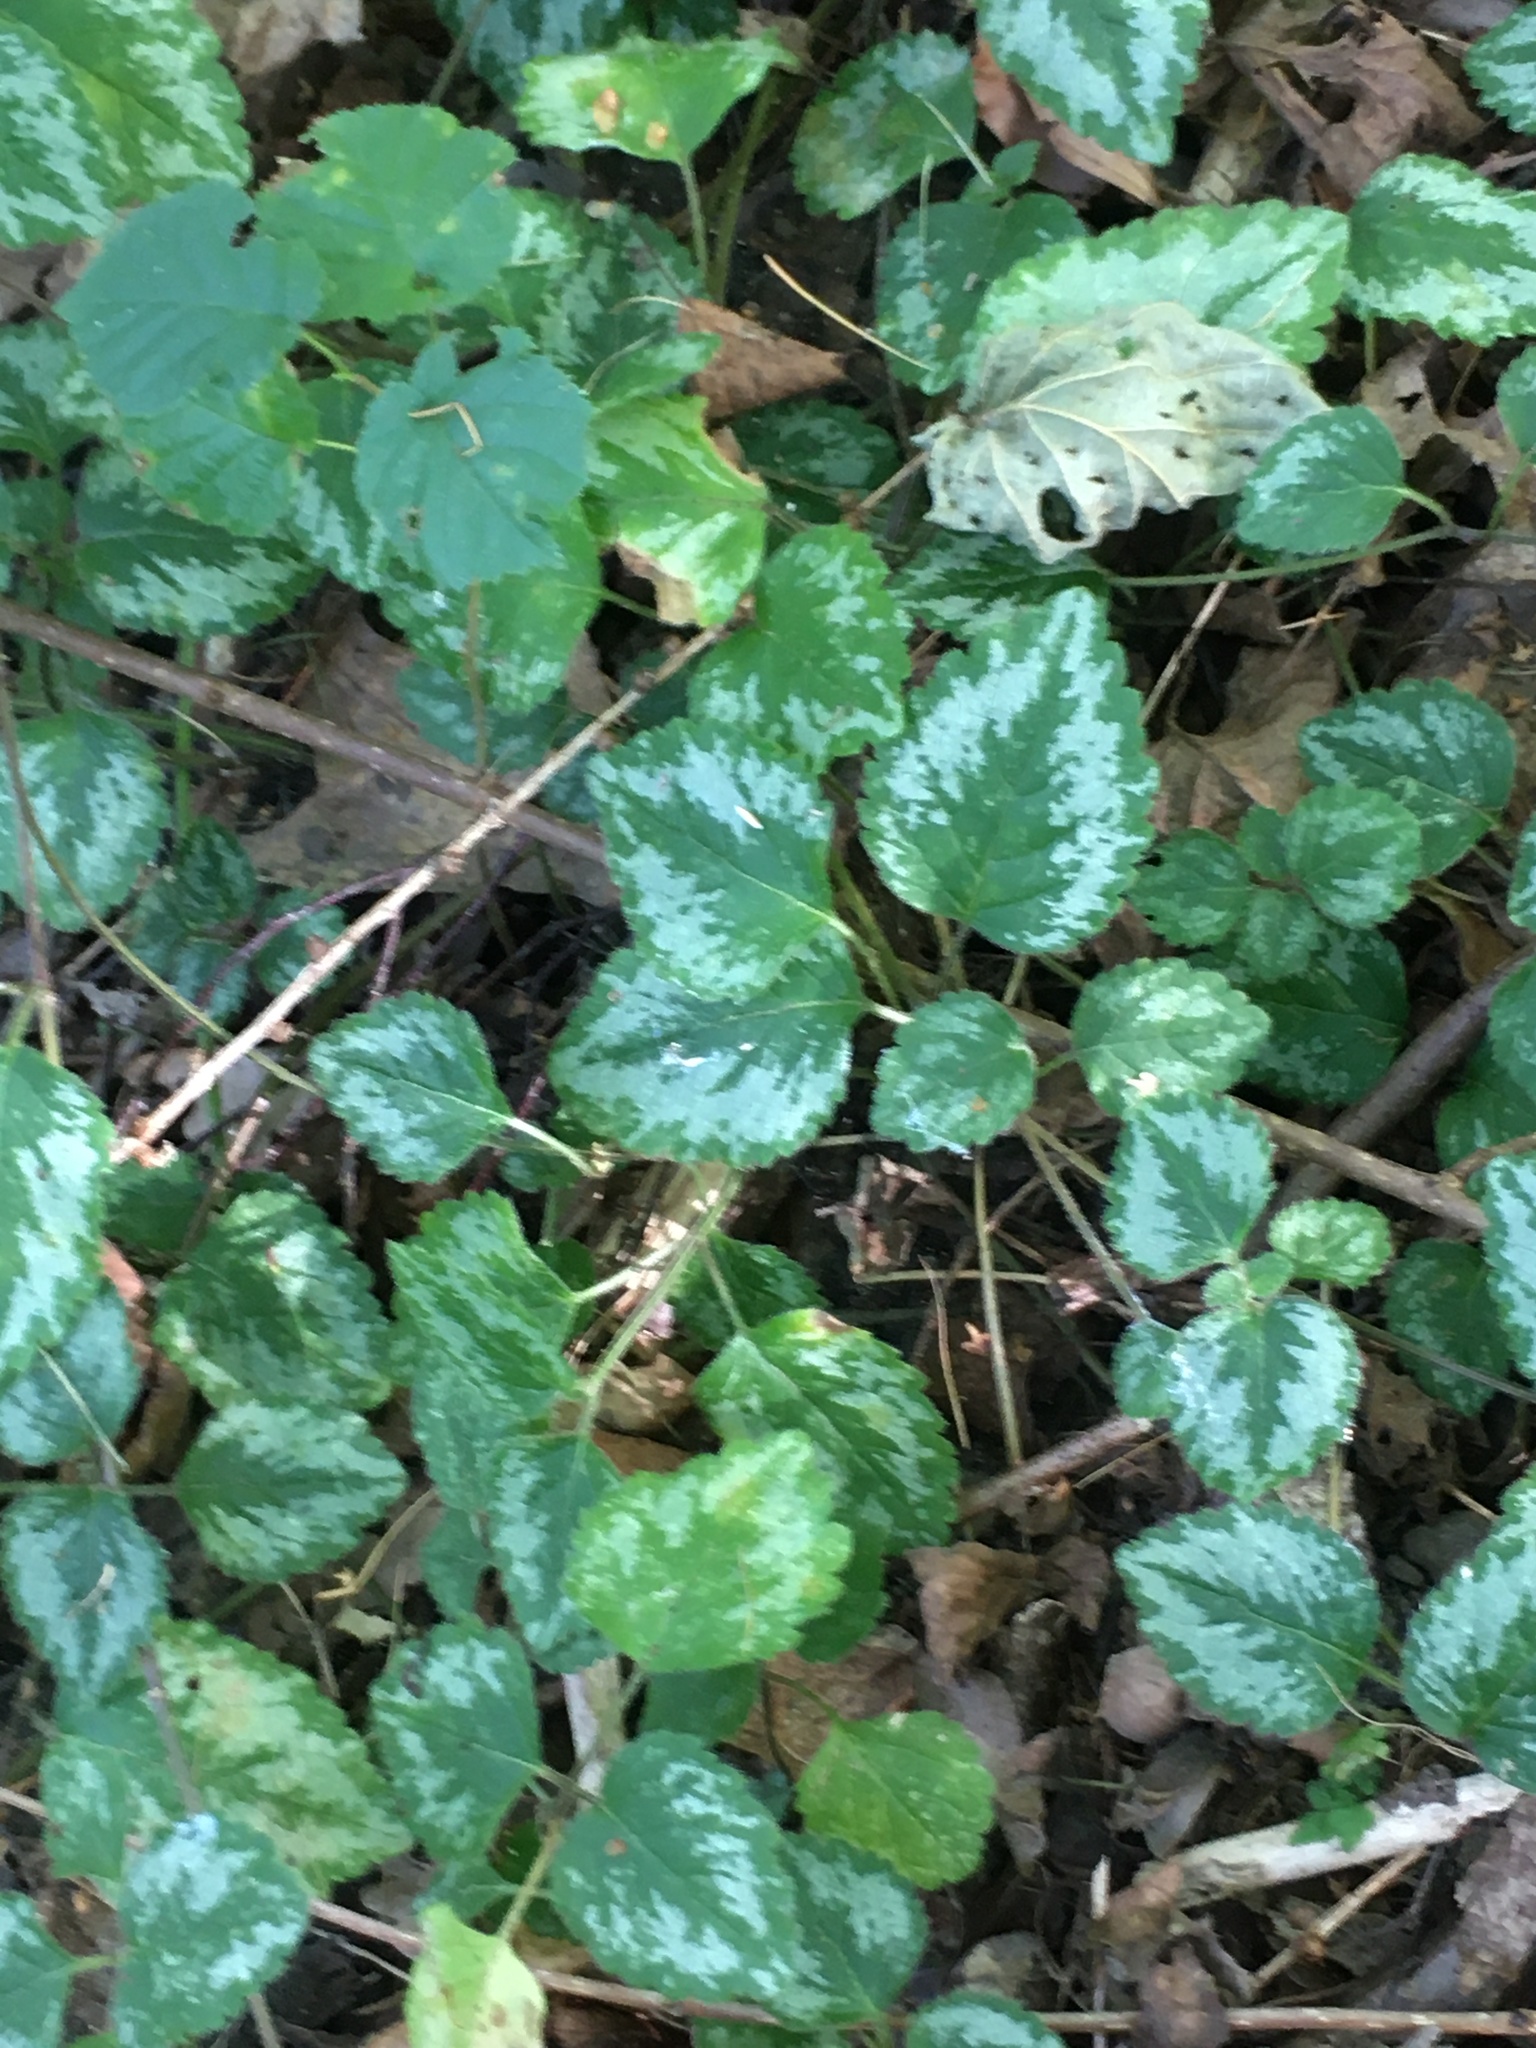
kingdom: Plantae
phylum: Tracheophyta
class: Magnoliopsida
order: Lamiales
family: Lamiaceae
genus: Lamium
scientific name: Lamium galeobdolon
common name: Yellow archangel
